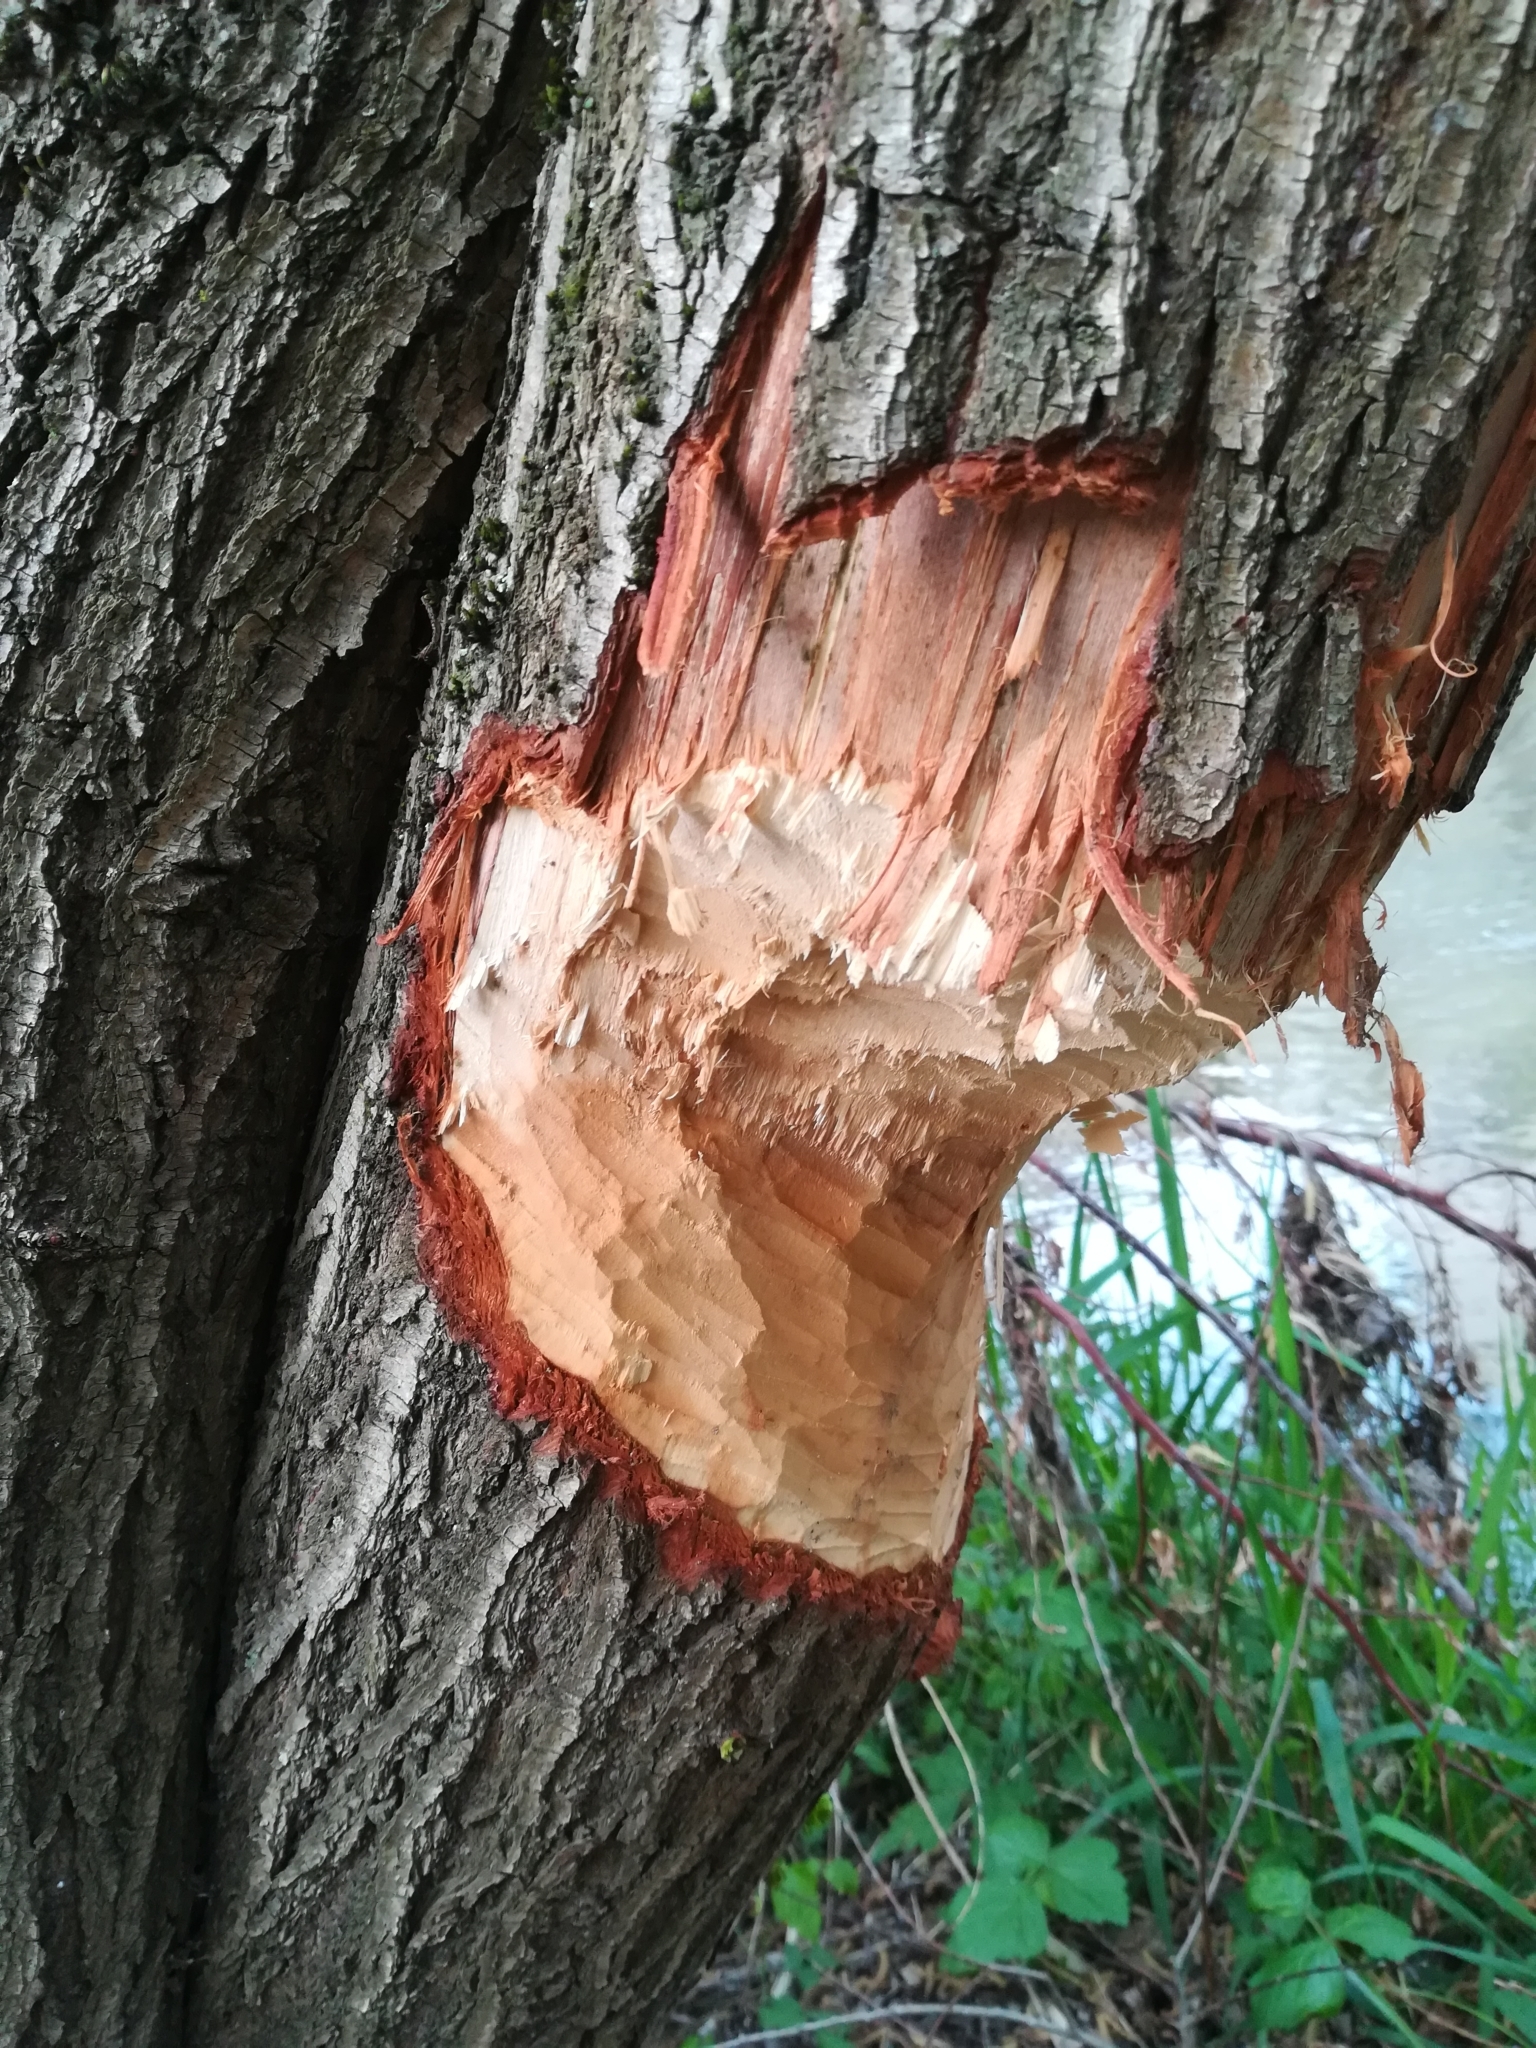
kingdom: Animalia
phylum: Chordata
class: Mammalia
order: Rodentia
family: Castoridae
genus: Castor
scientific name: Castor fiber
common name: Eurasian beaver
